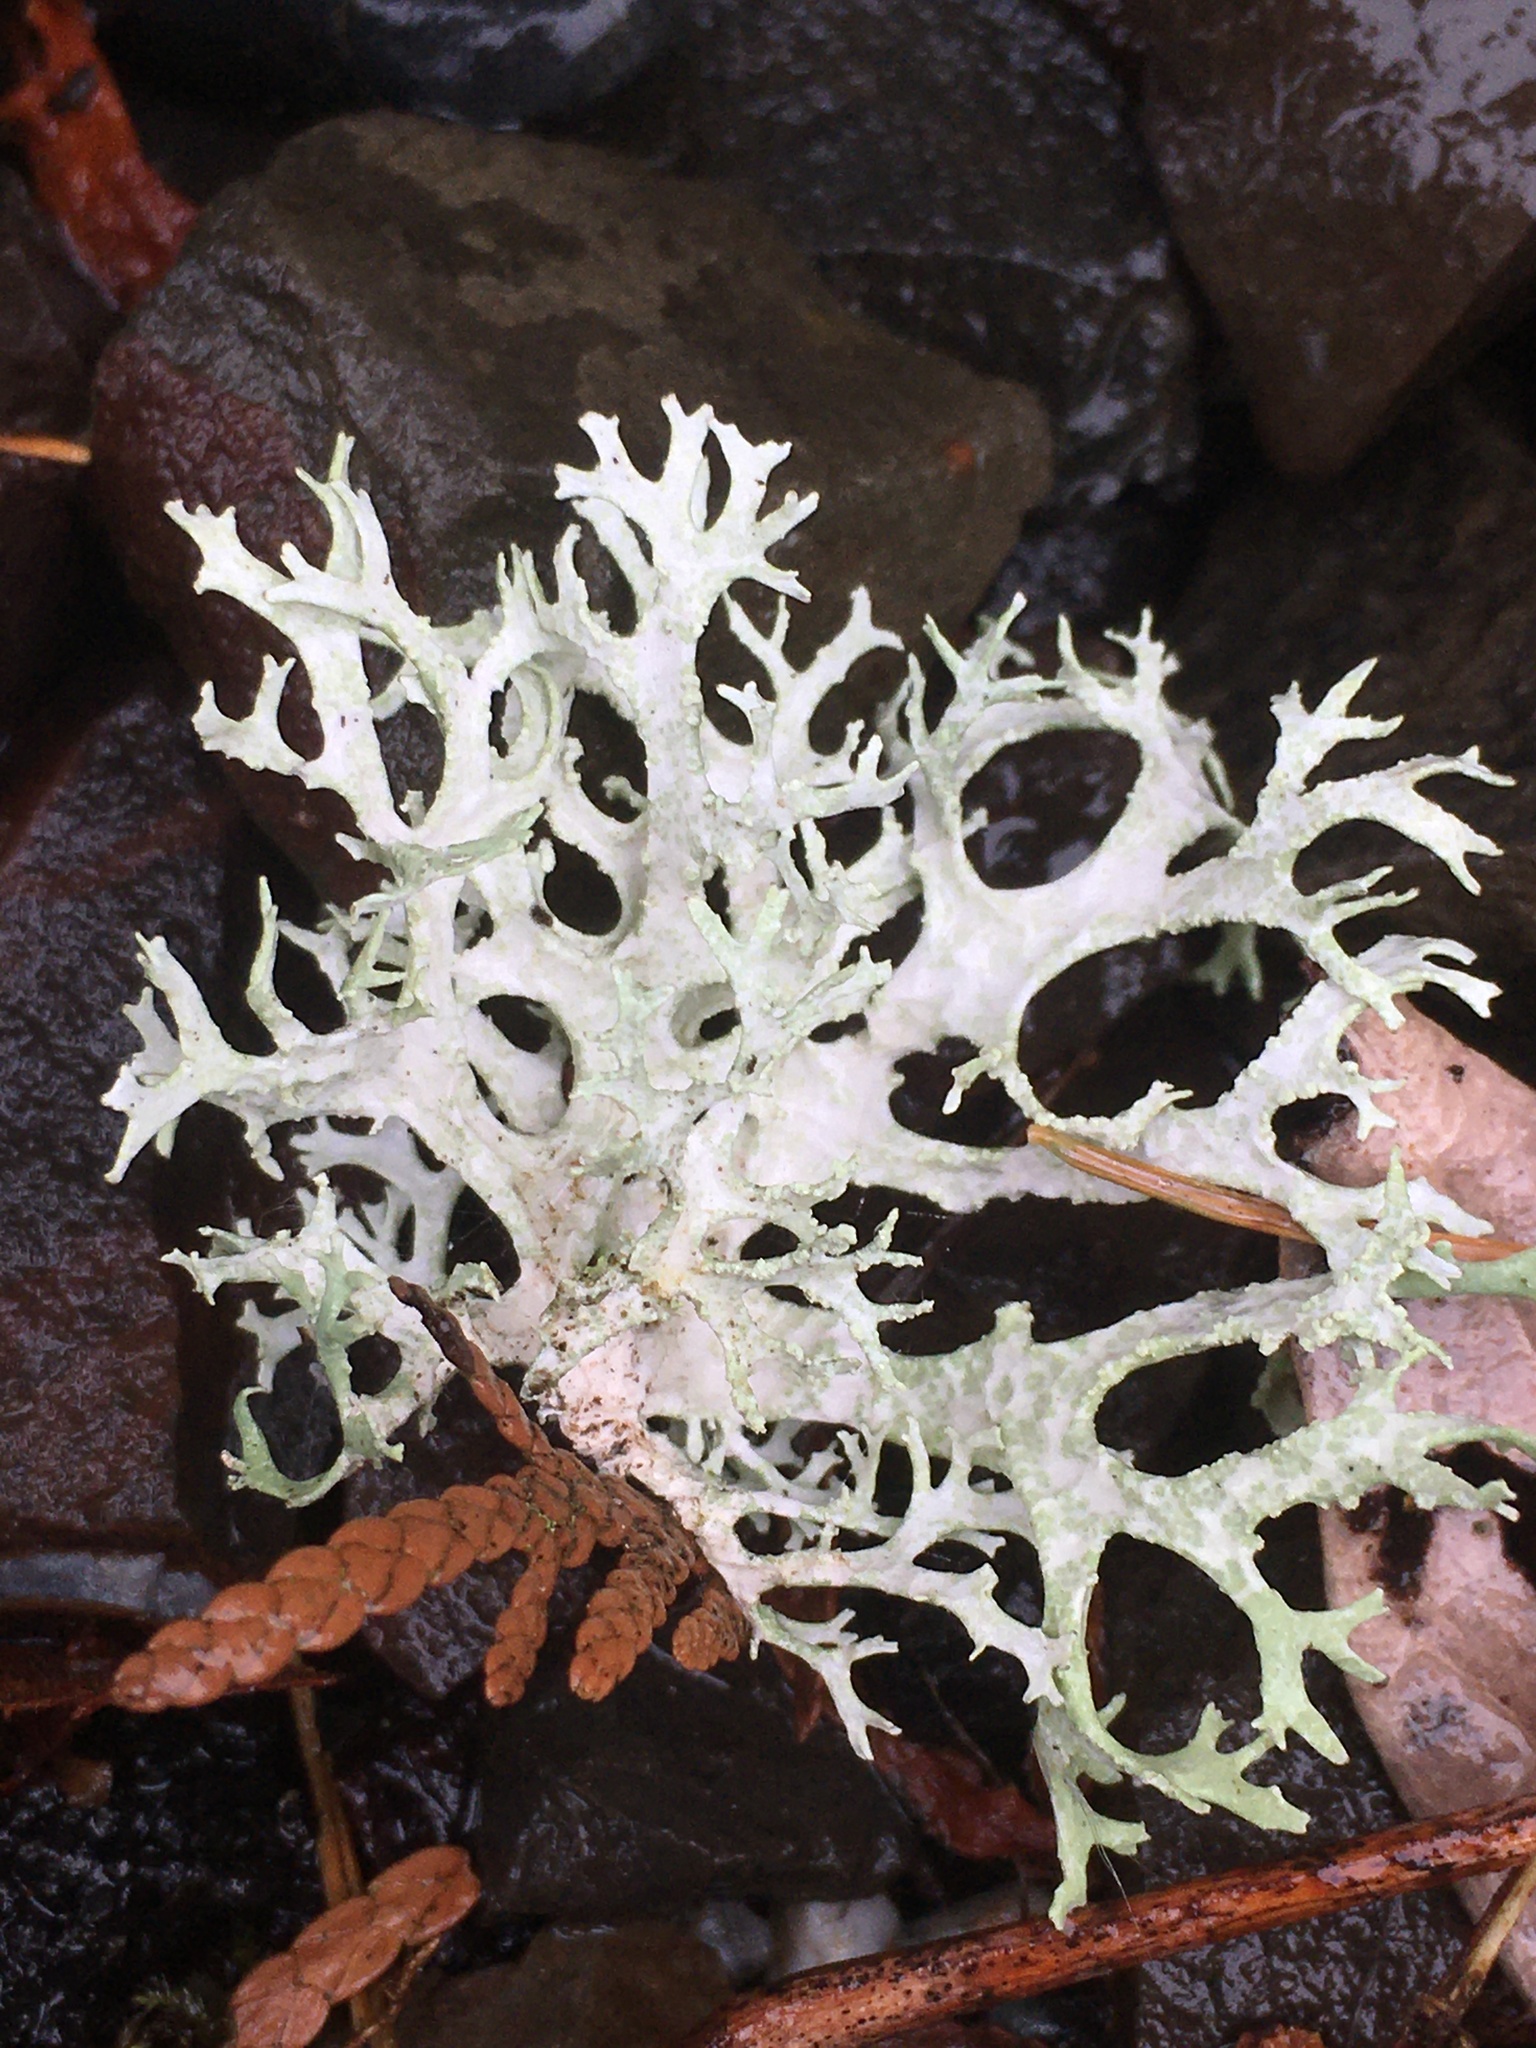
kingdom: Fungi
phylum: Ascomycota
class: Lecanoromycetes
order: Lecanorales
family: Parmeliaceae
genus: Evernia
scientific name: Evernia prunastri
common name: Oak moss
